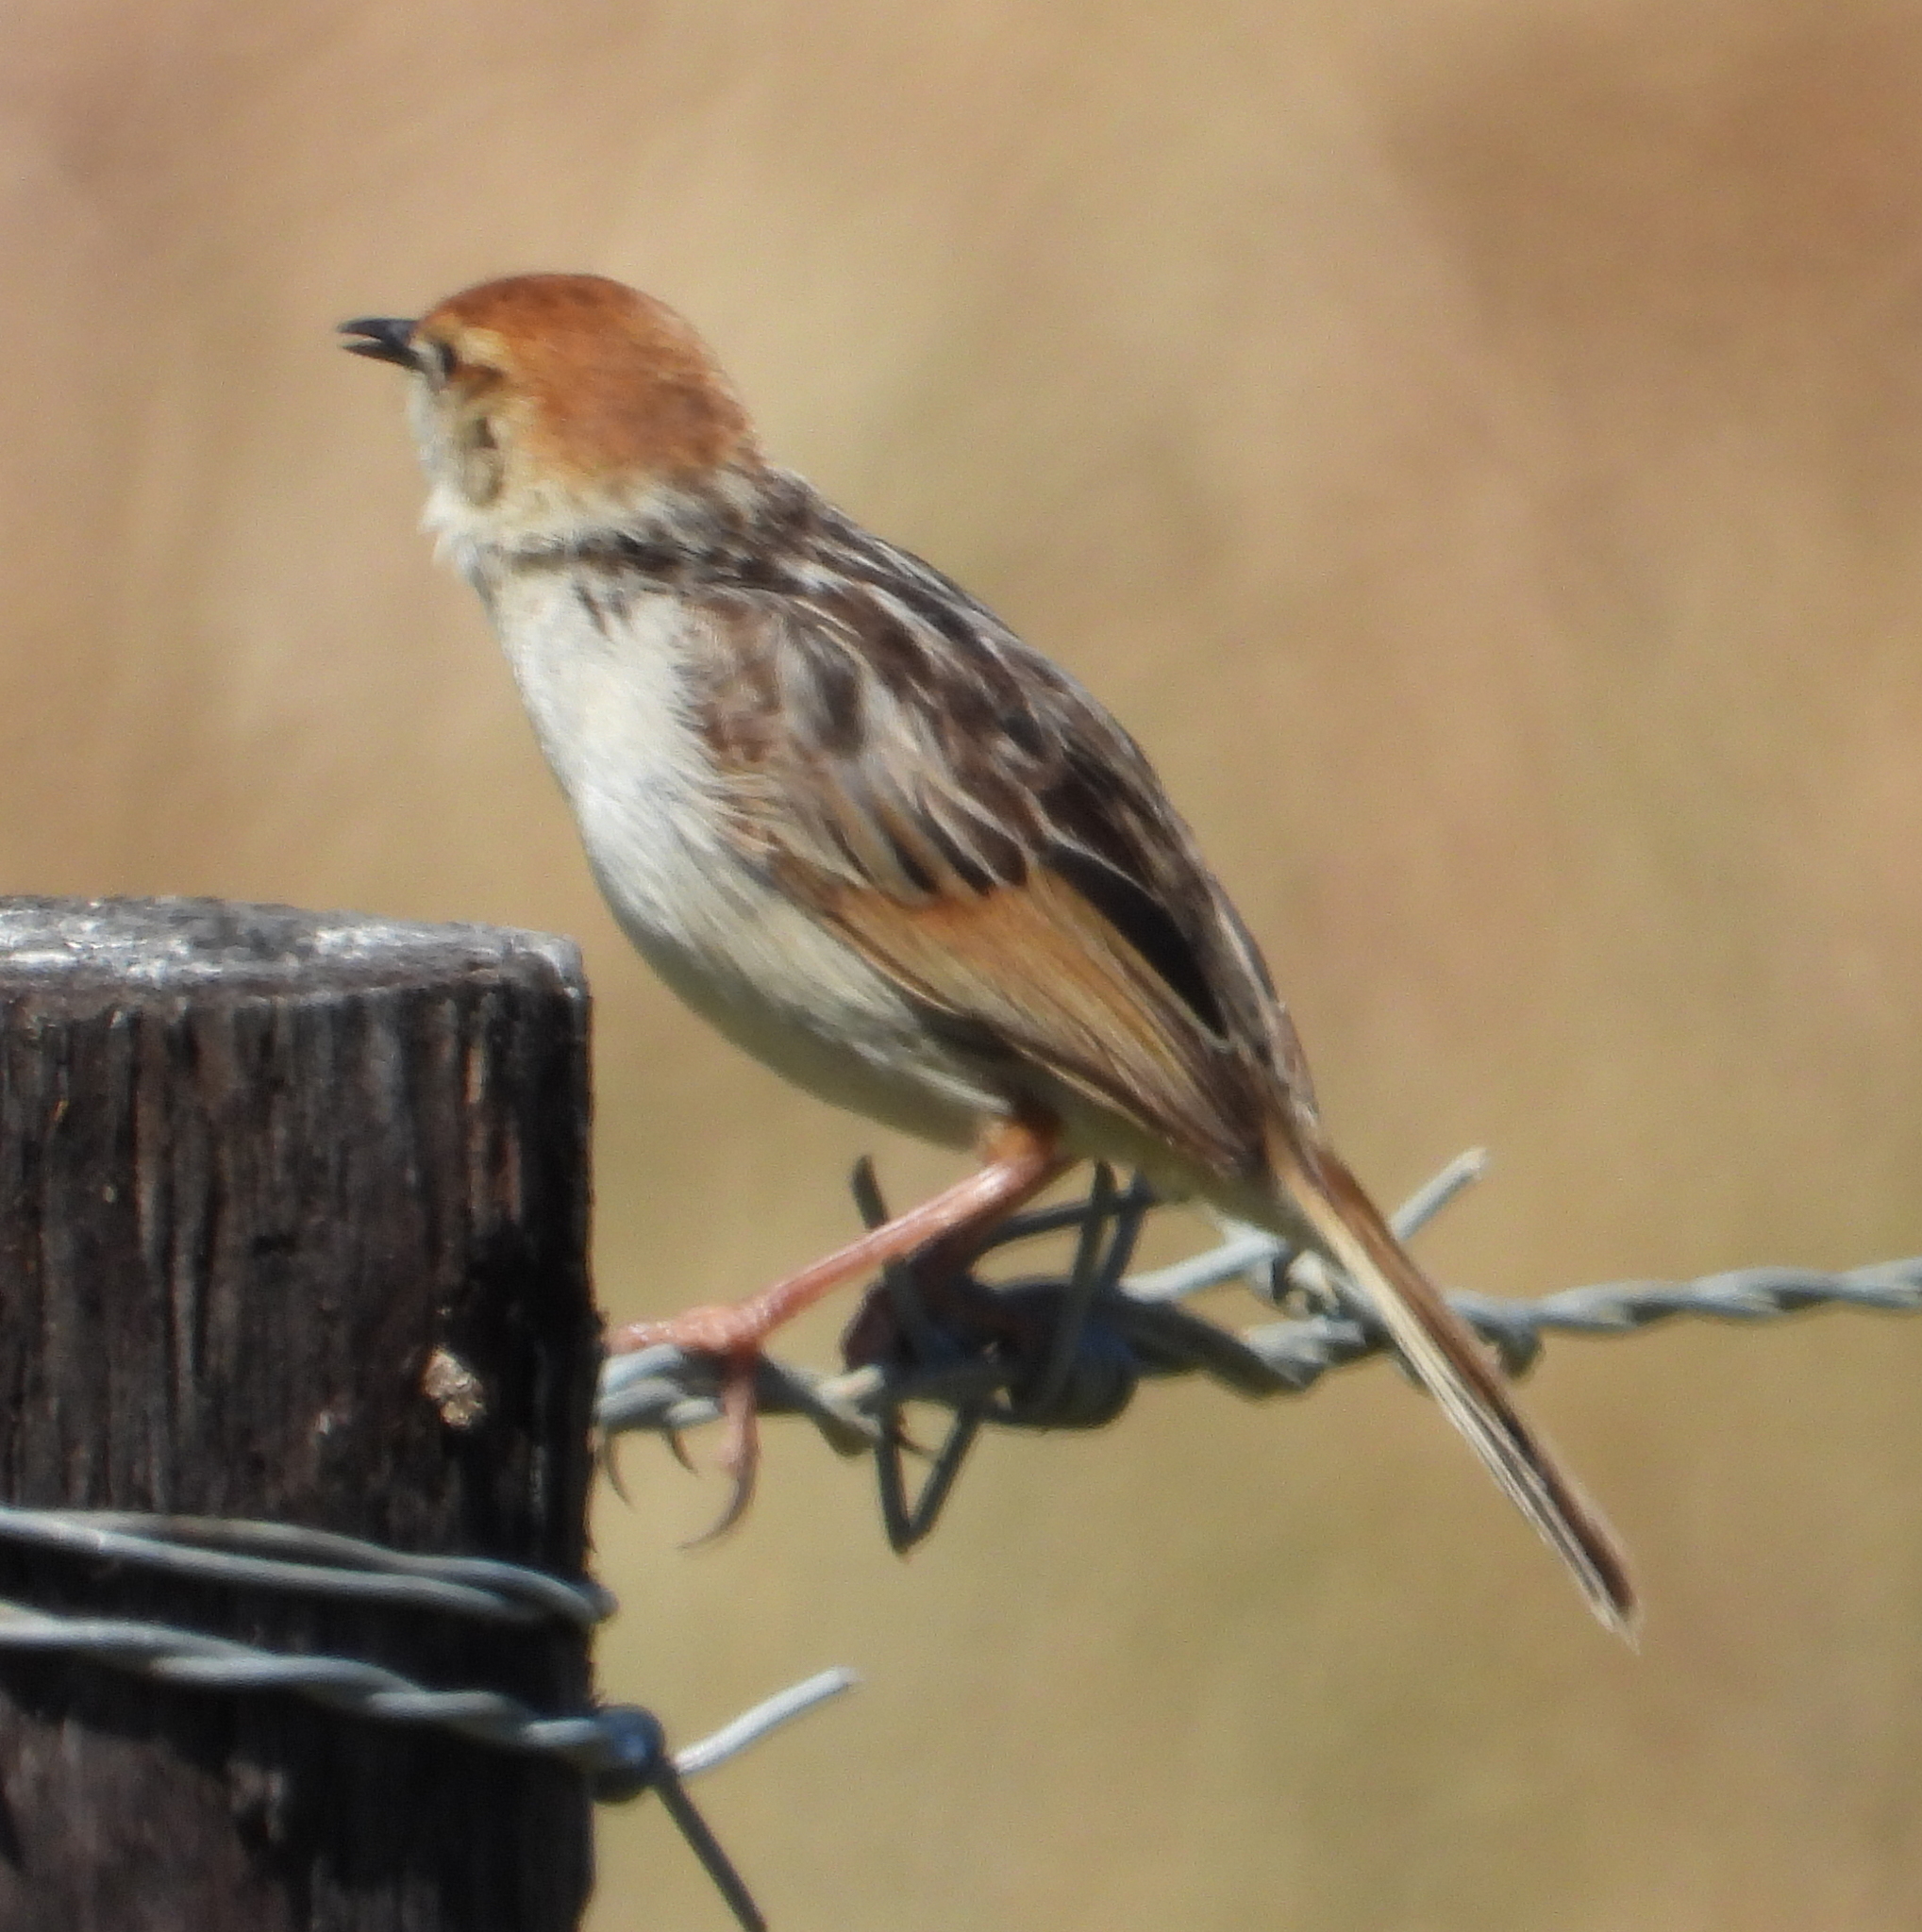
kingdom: Animalia
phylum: Chordata
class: Aves
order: Passeriformes
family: Cisticolidae
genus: Cisticola
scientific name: Cisticola tinniens
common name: Levaillant's cisticola
